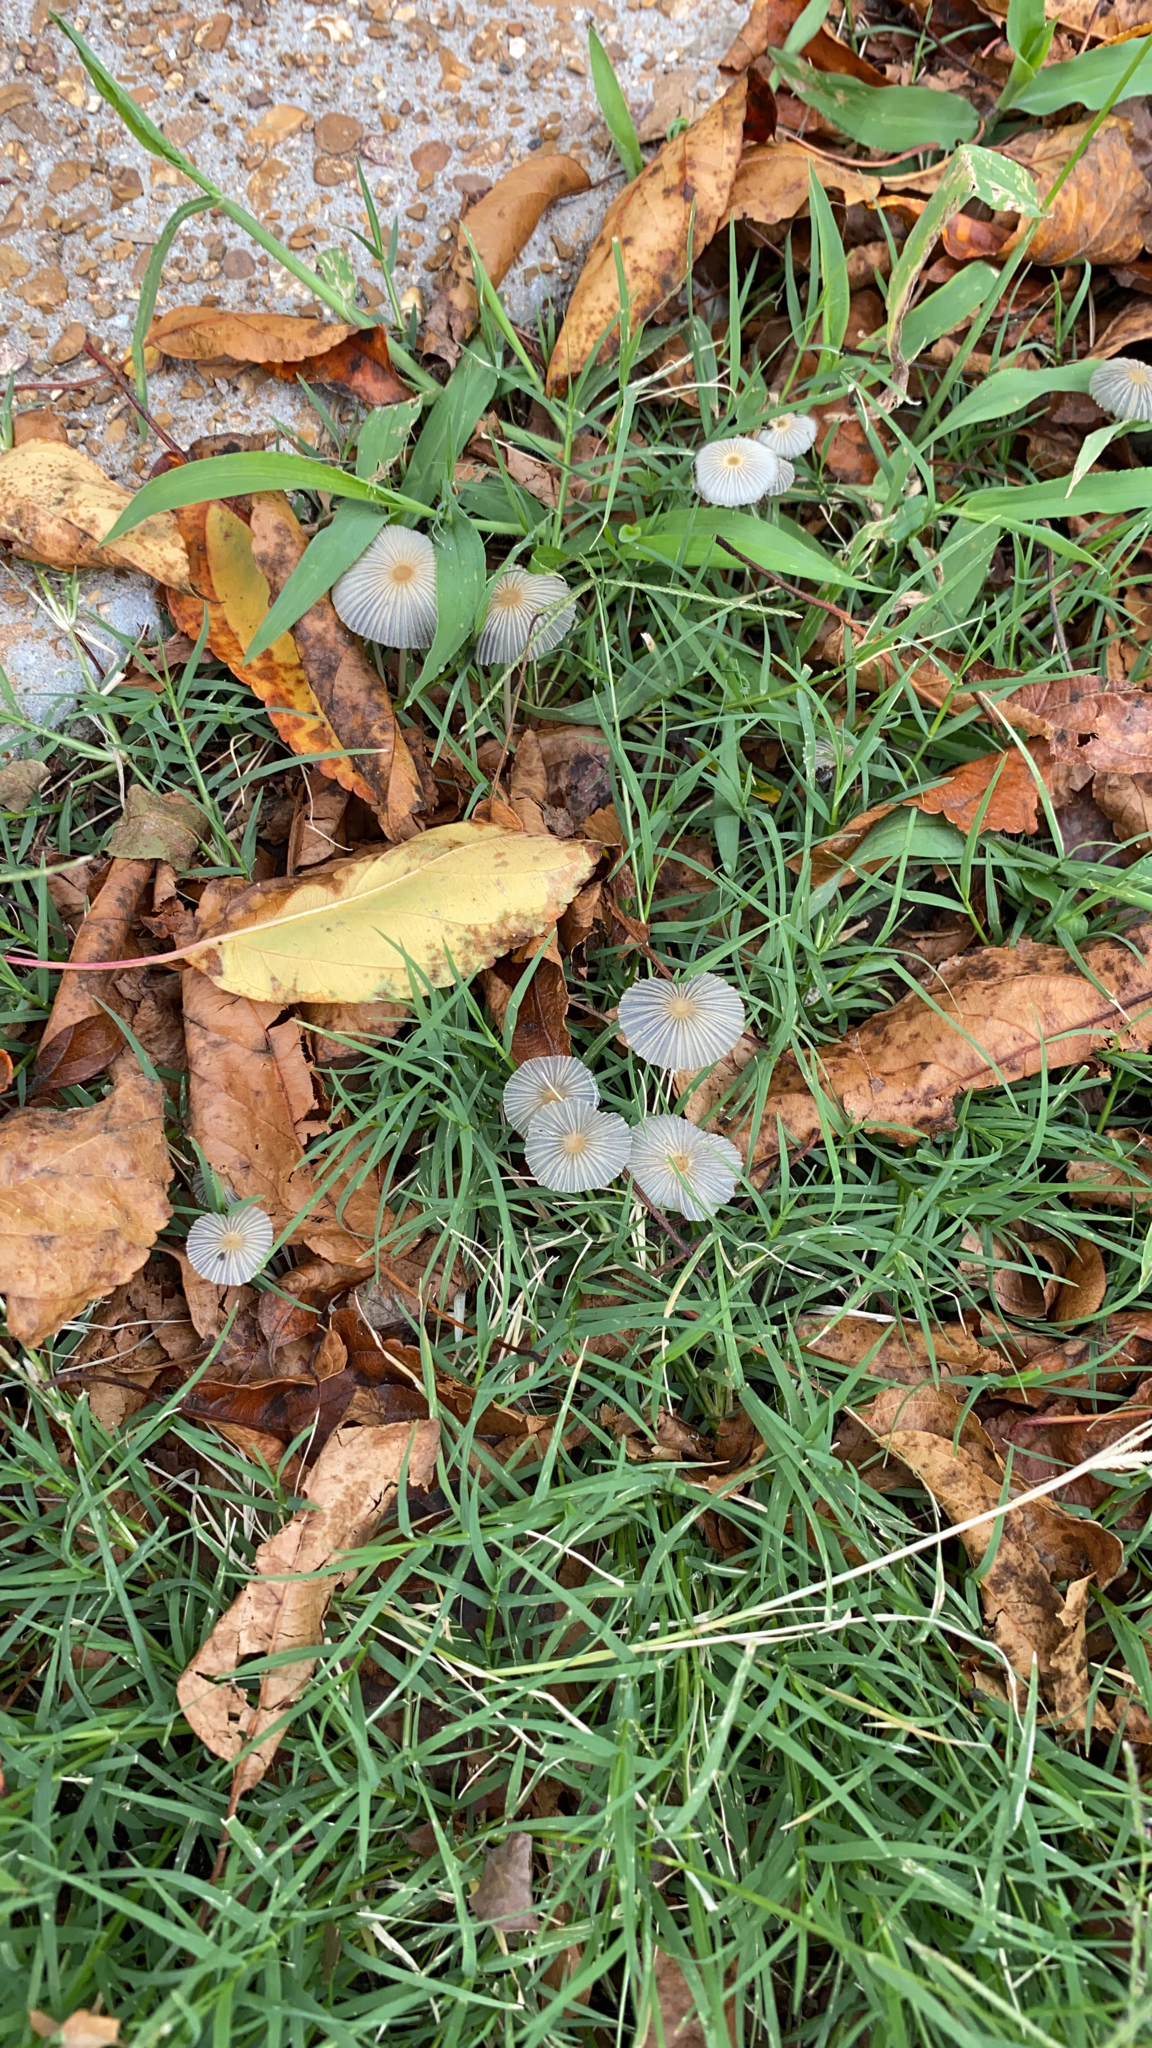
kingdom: Fungi
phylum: Basidiomycota
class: Agaricomycetes
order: Agaricales
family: Psathyrellaceae
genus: Parasola
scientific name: Parasola plicatilis
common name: Pleated inkcap
